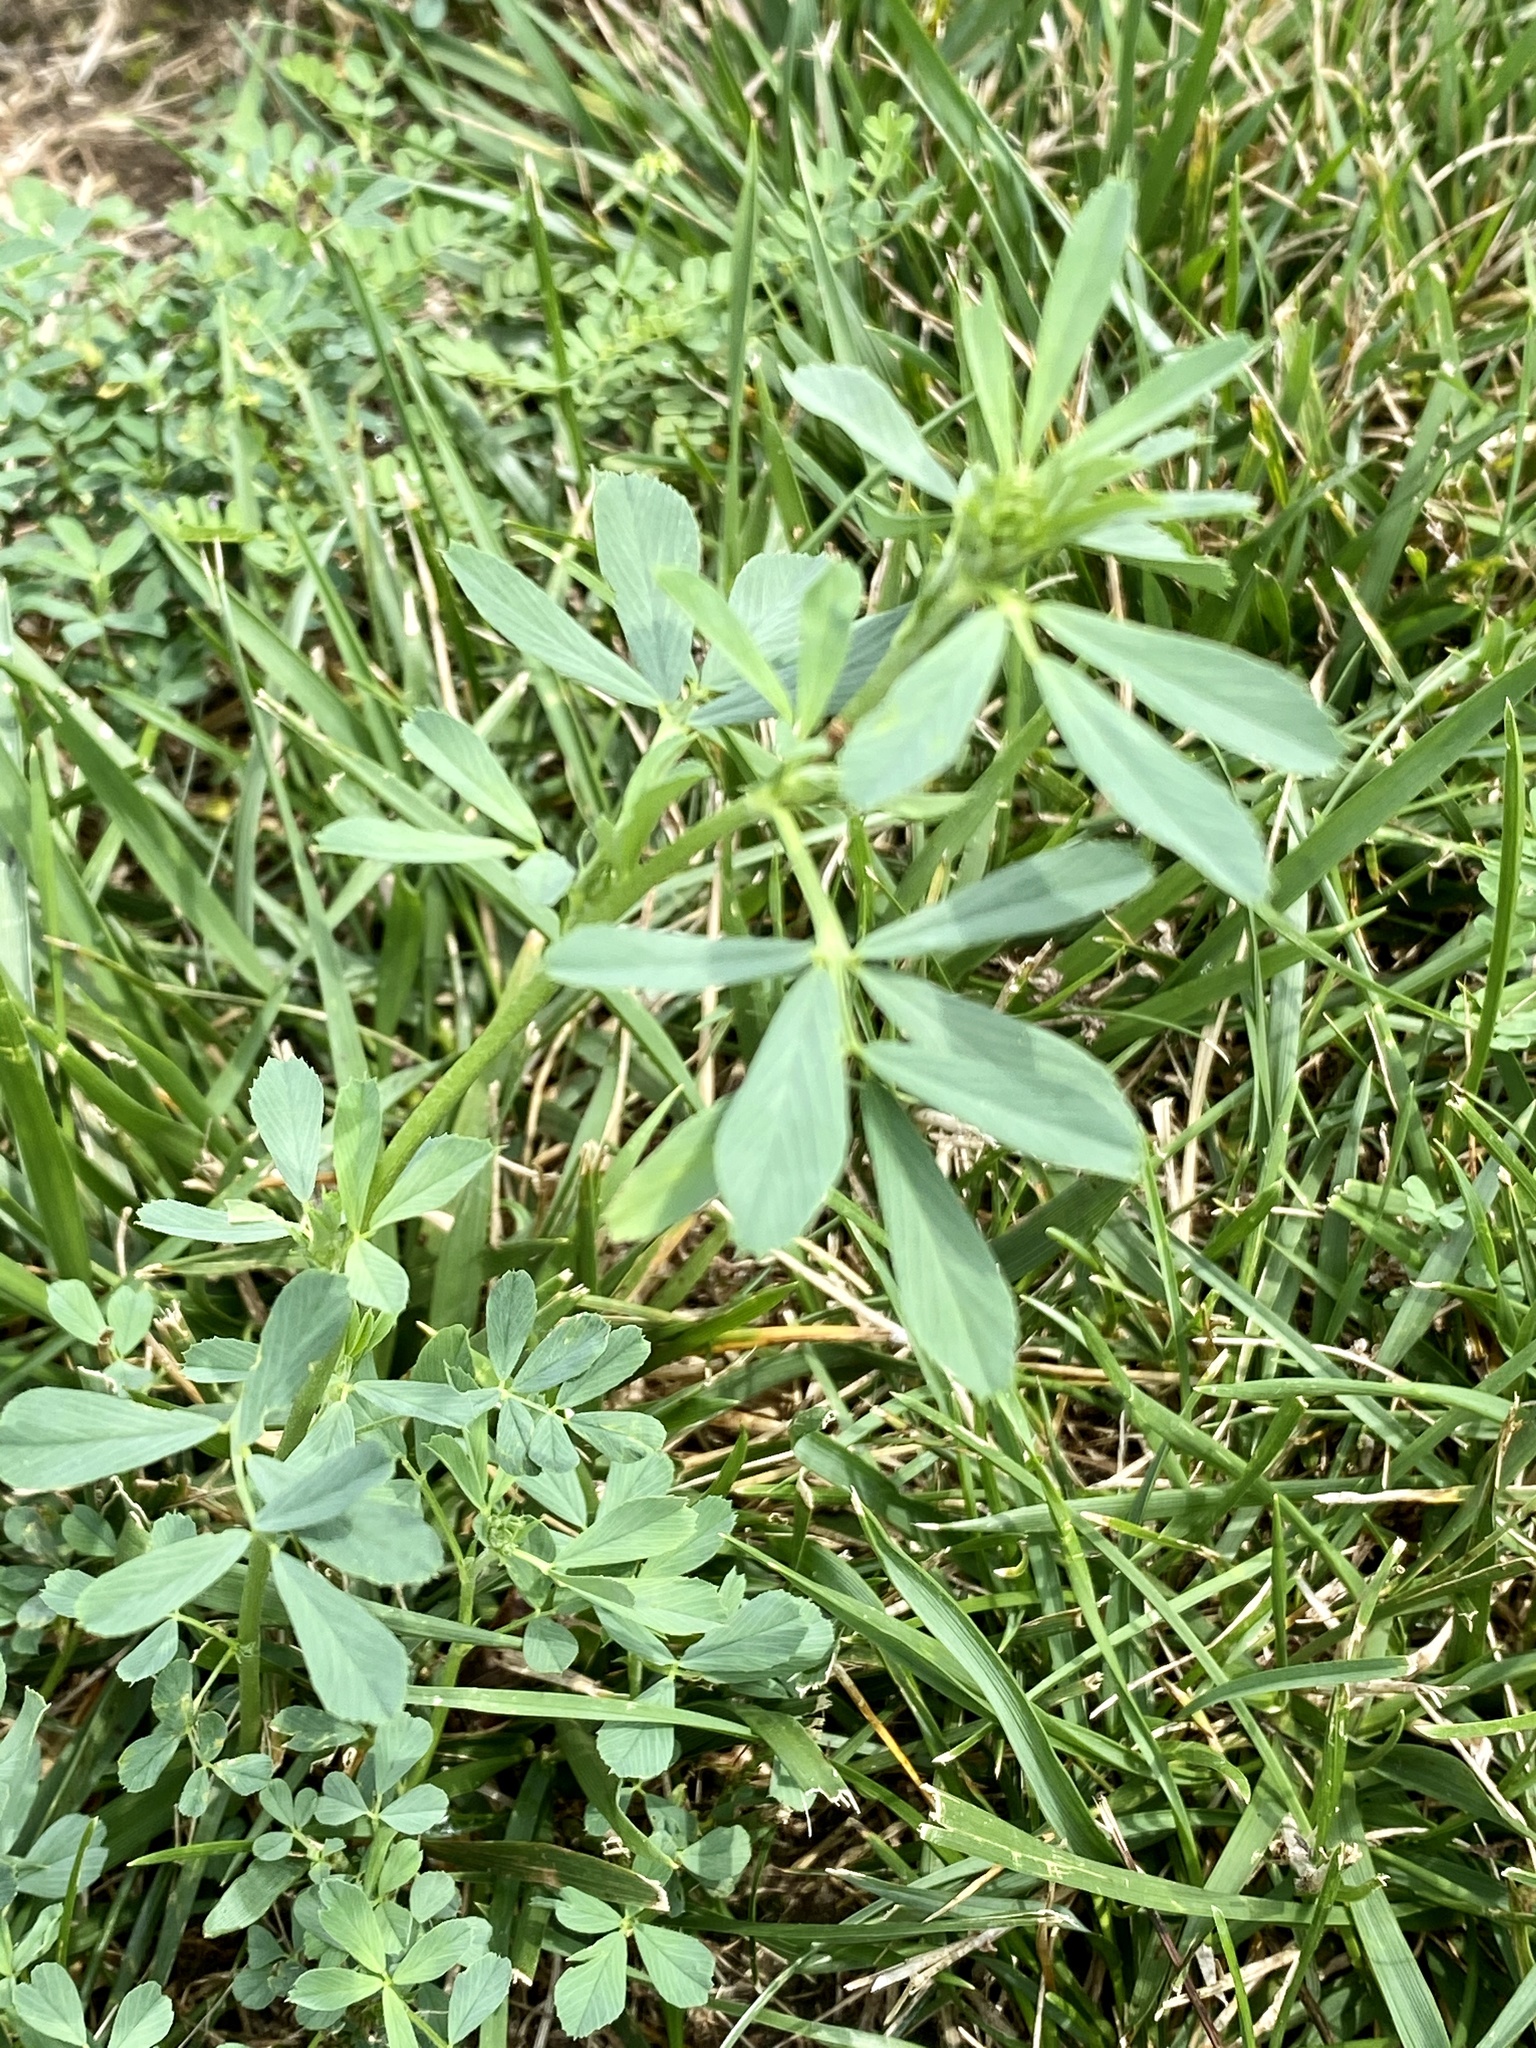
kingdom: Plantae
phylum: Tracheophyta
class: Magnoliopsida
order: Fabales
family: Fabaceae
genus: Medicago
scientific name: Medicago sativa
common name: Alfalfa
